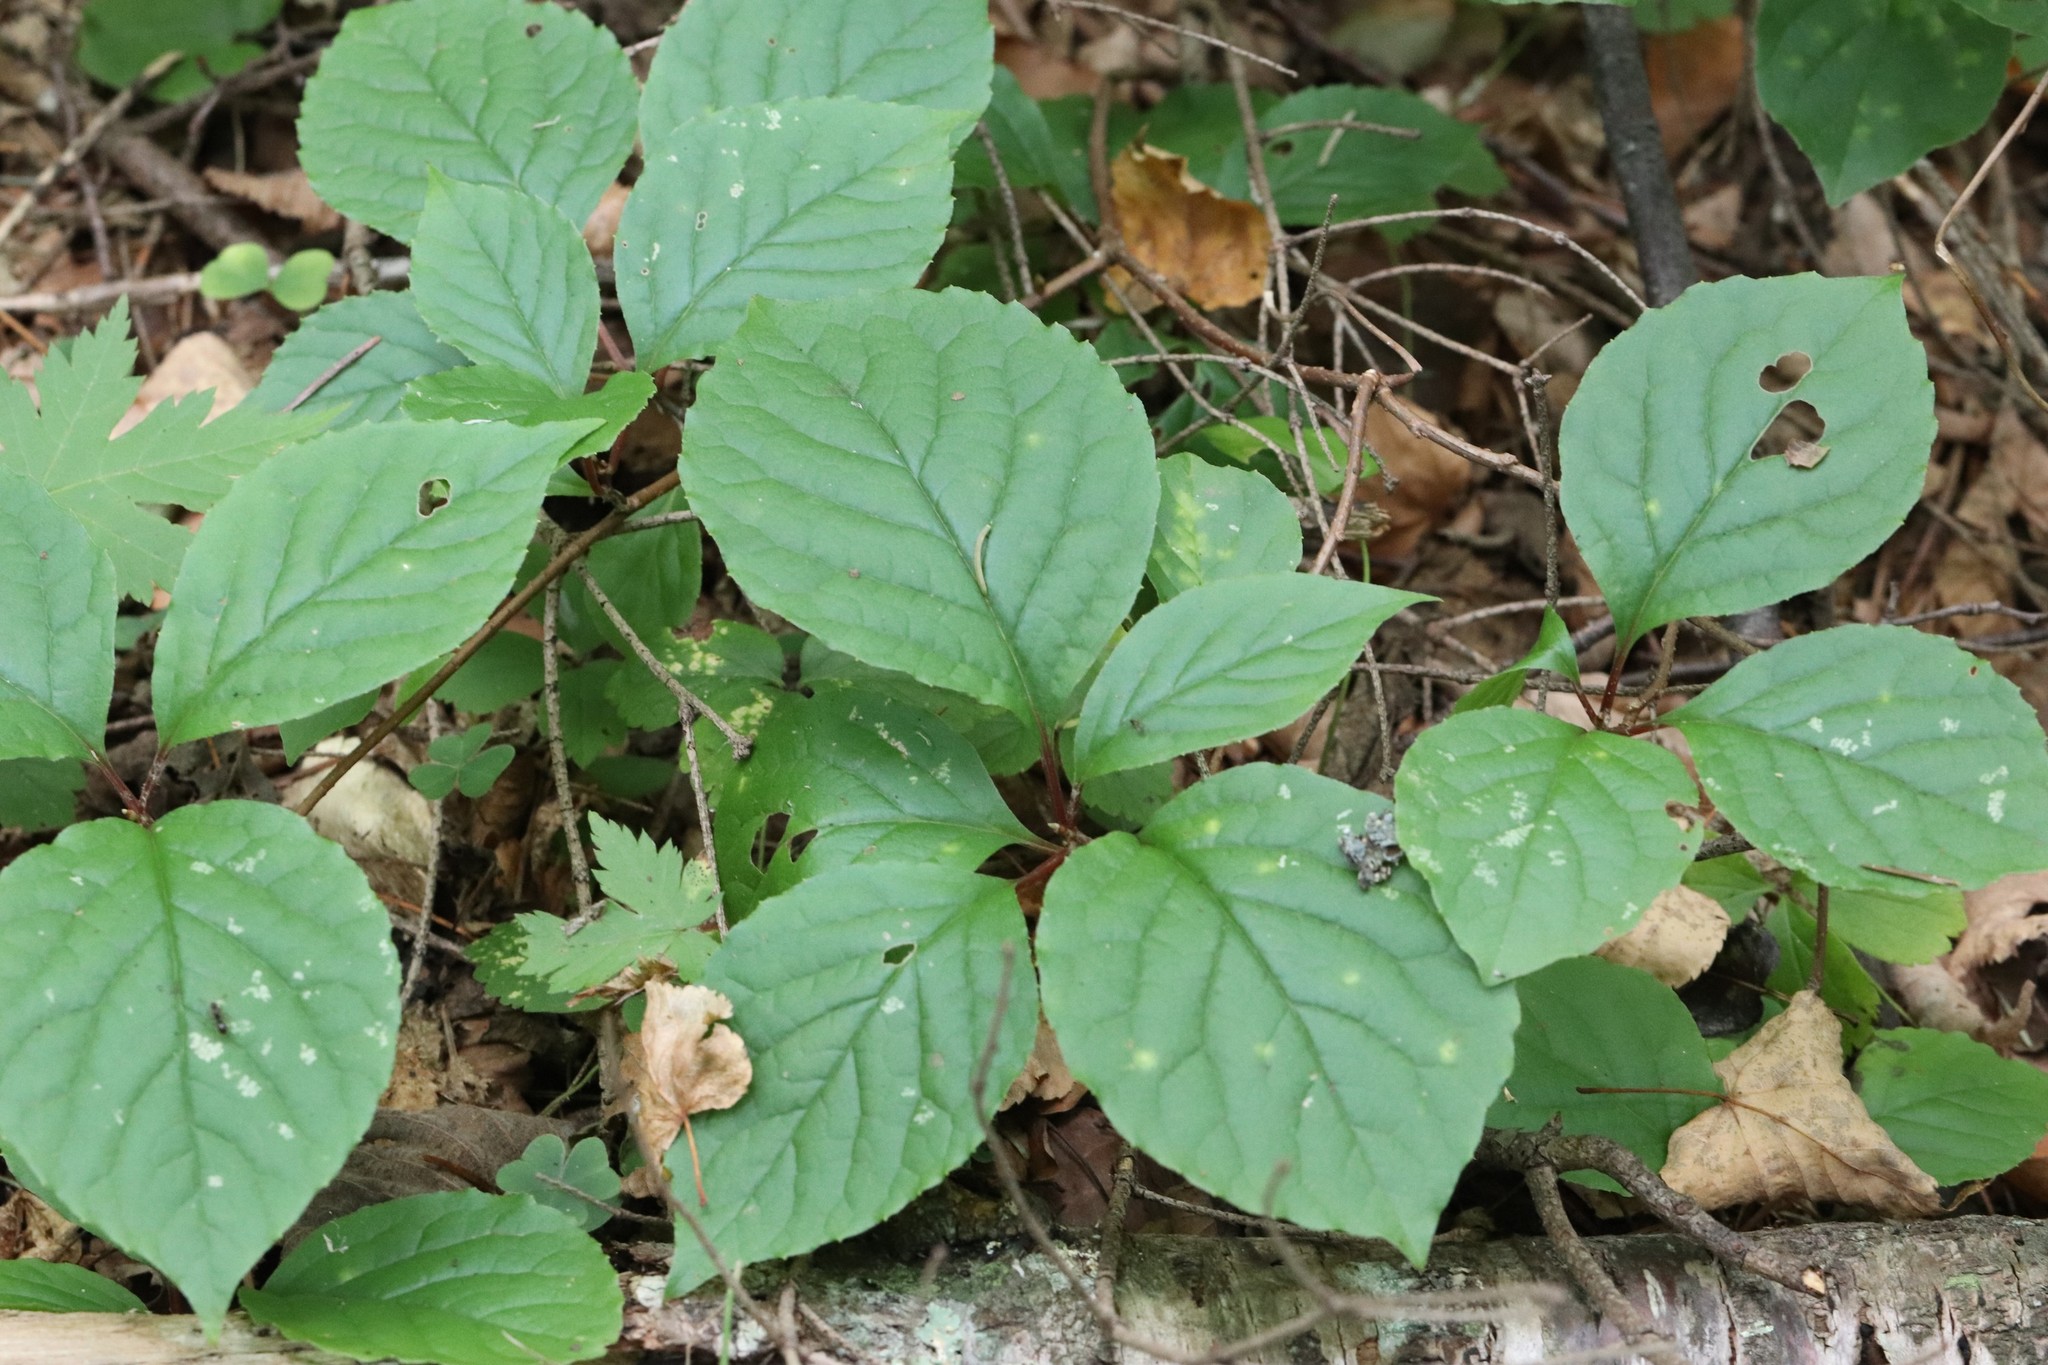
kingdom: Plantae
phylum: Tracheophyta
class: Magnoliopsida
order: Austrobaileyales
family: Schisandraceae
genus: Schisandra
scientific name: Schisandra chinensis
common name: Magnolia-vine
